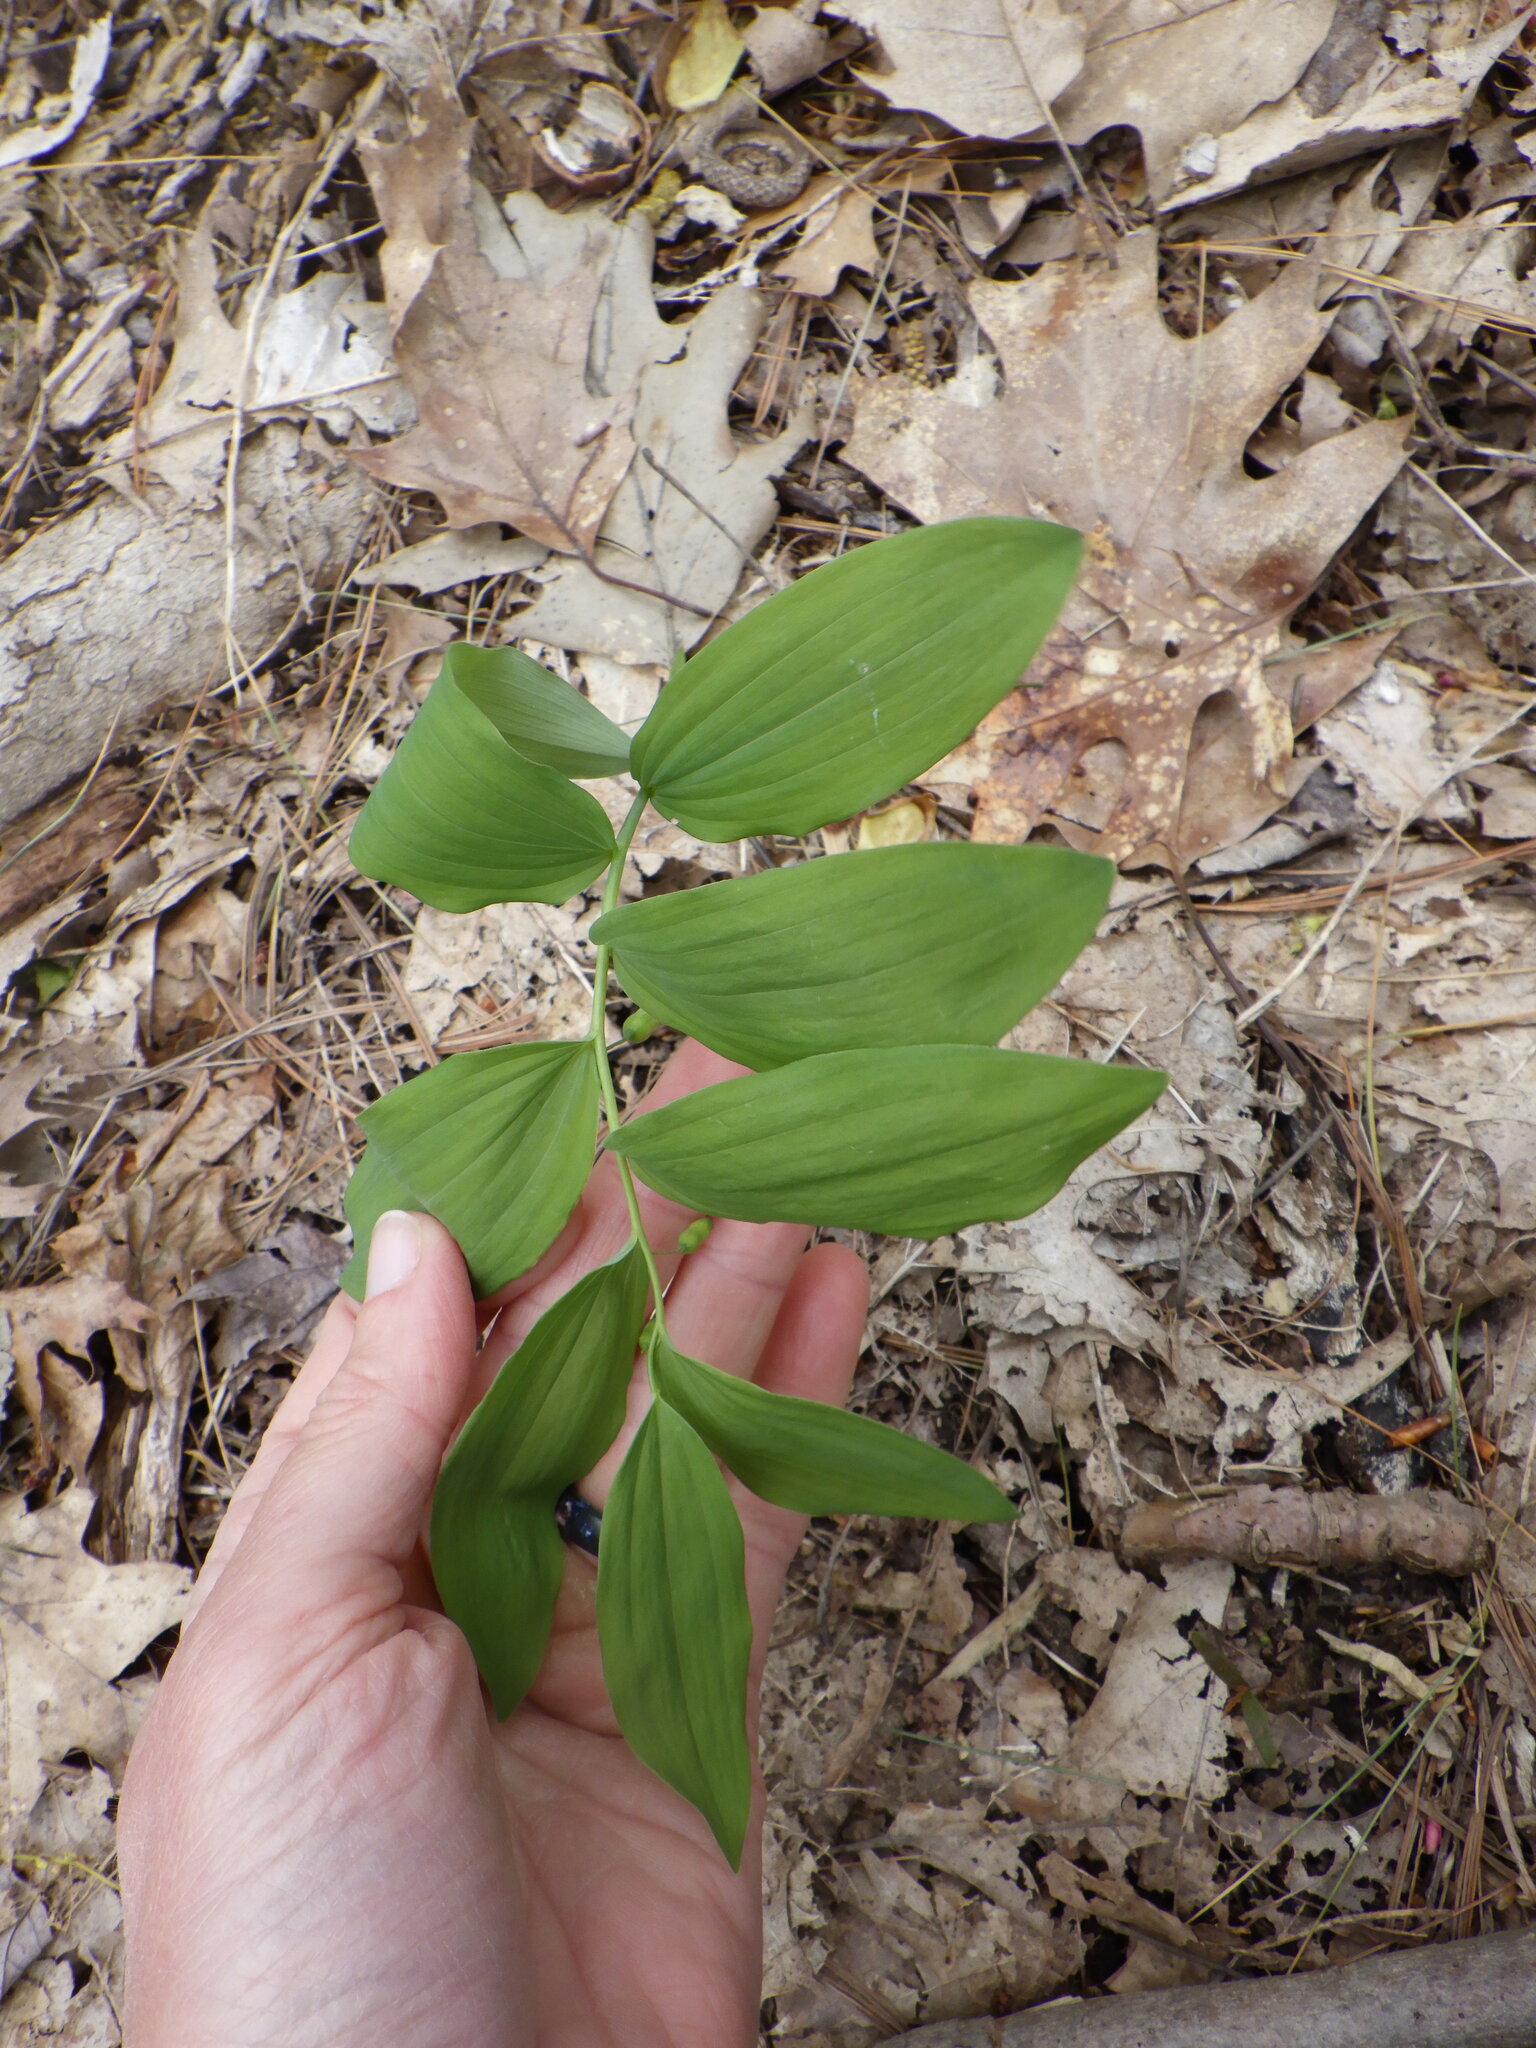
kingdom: Plantae
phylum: Tracheophyta
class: Liliopsida
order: Asparagales
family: Asparagaceae
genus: Polygonatum
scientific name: Polygonatum pubescens
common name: Downy solomon's seal
